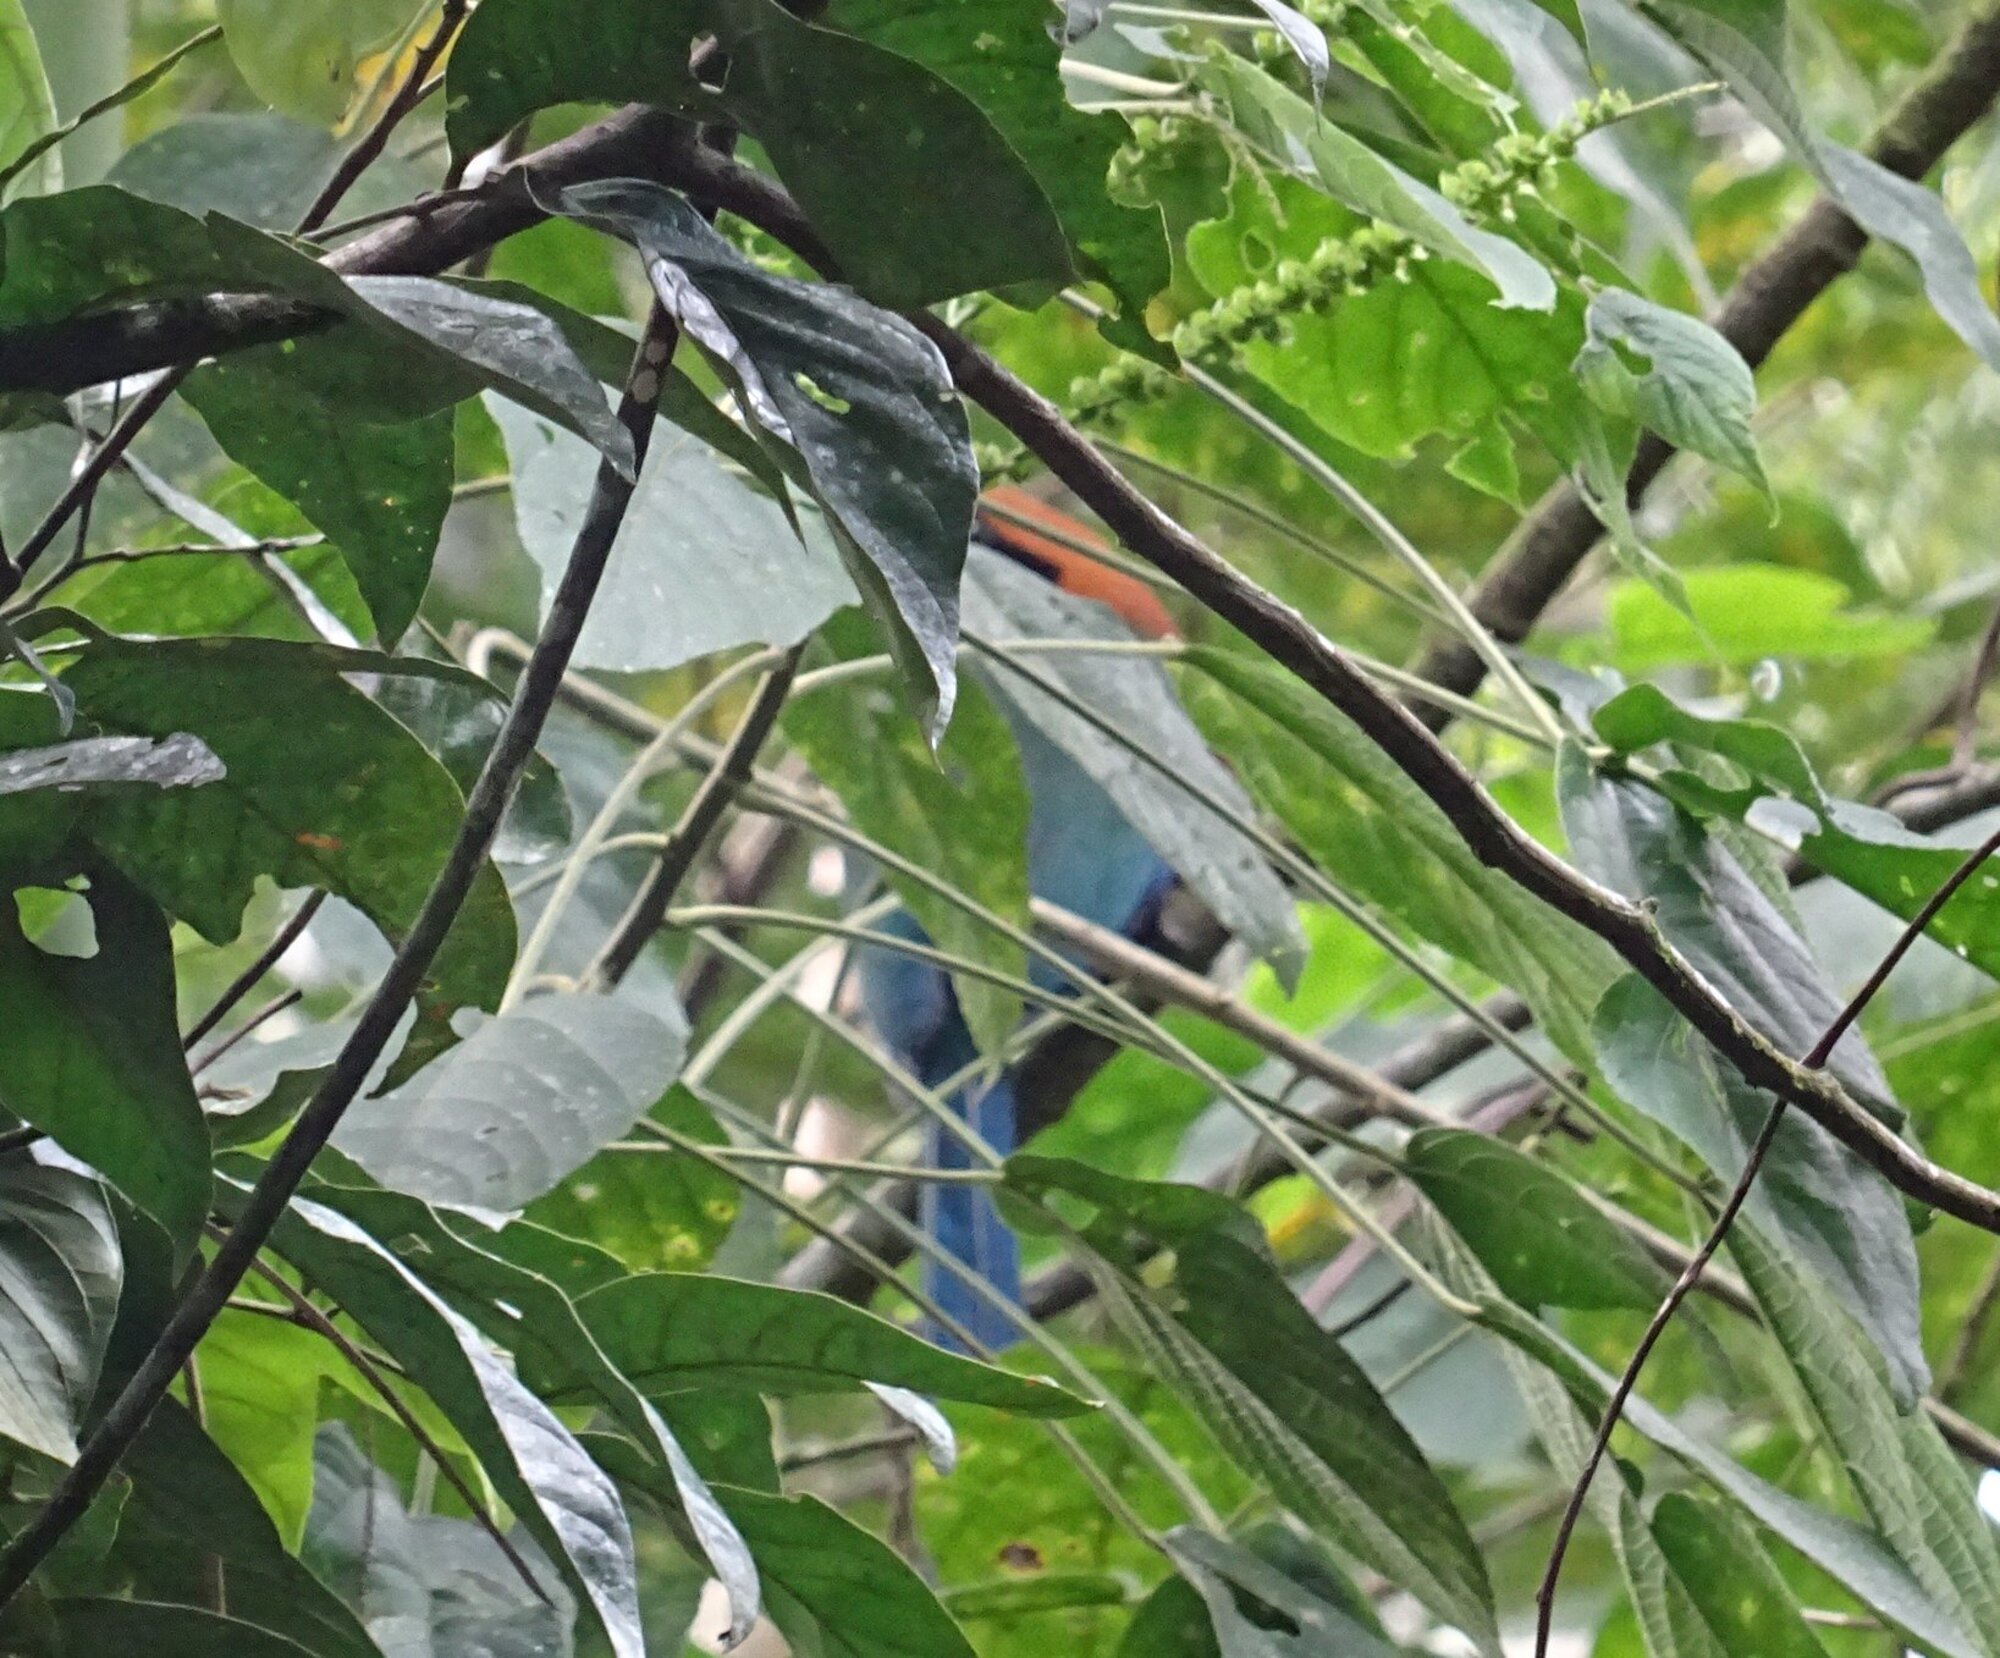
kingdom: Animalia
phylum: Chordata
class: Aves
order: Coraciiformes
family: Momotidae
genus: Baryphthengus
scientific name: Baryphthengus martii
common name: Rufous motmot
